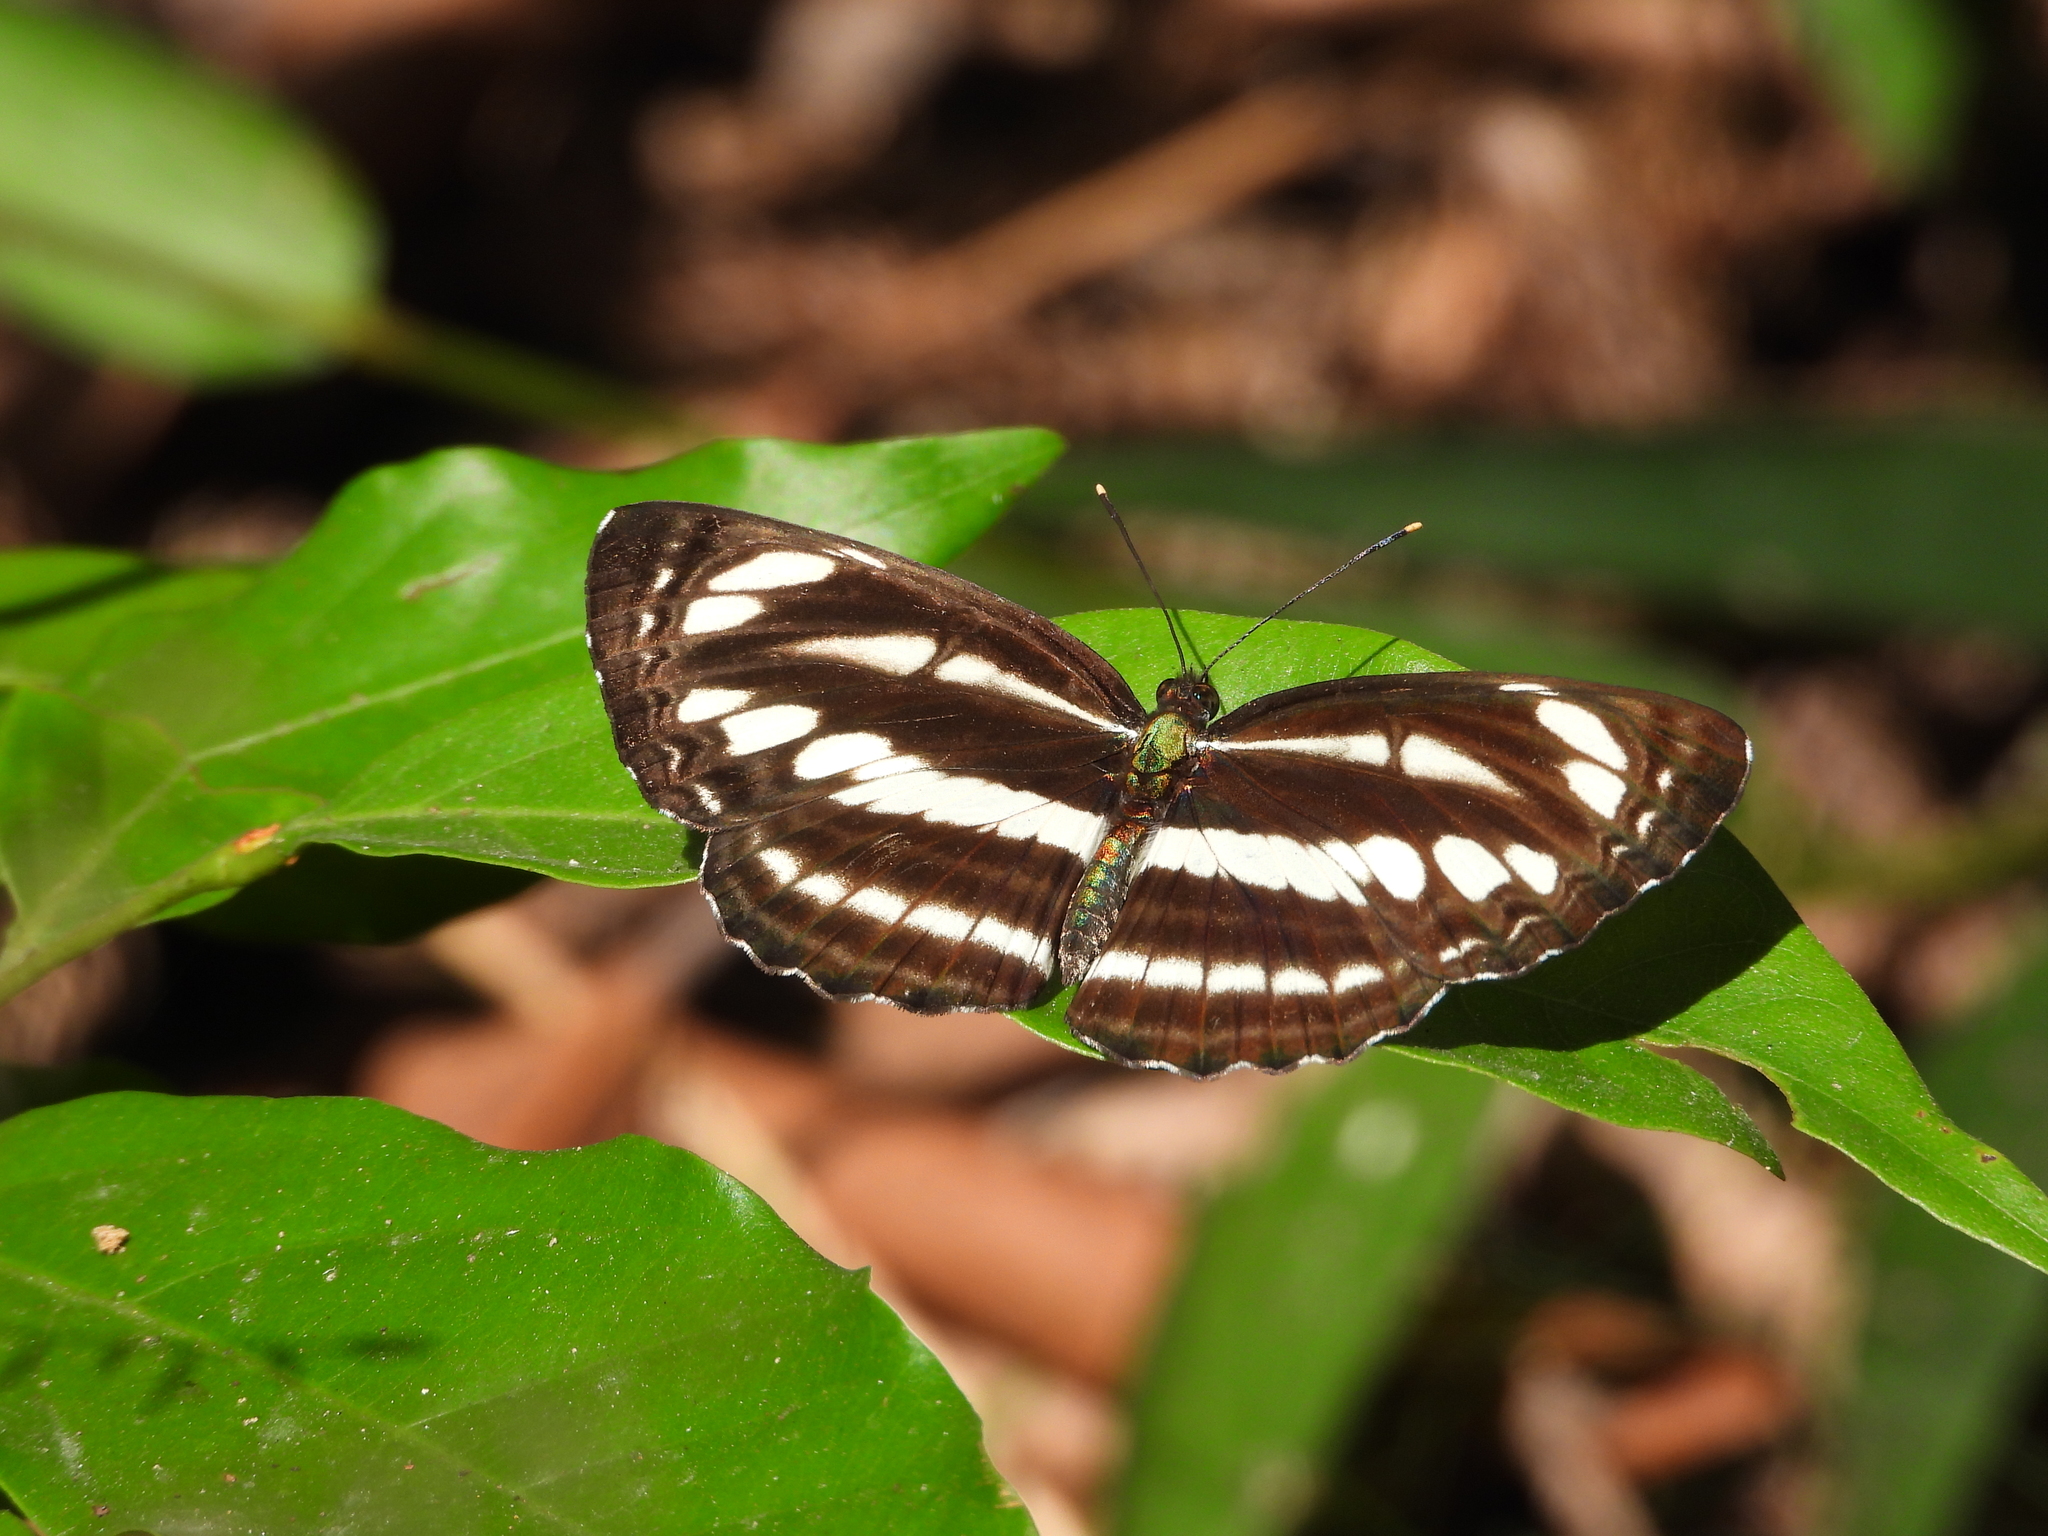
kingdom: Animalia
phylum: Arthropoda
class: Insecta
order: Lepidoptera
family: Nymphalidae
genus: Neptis
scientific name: Neptis clinia
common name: Southern sullied sailer
